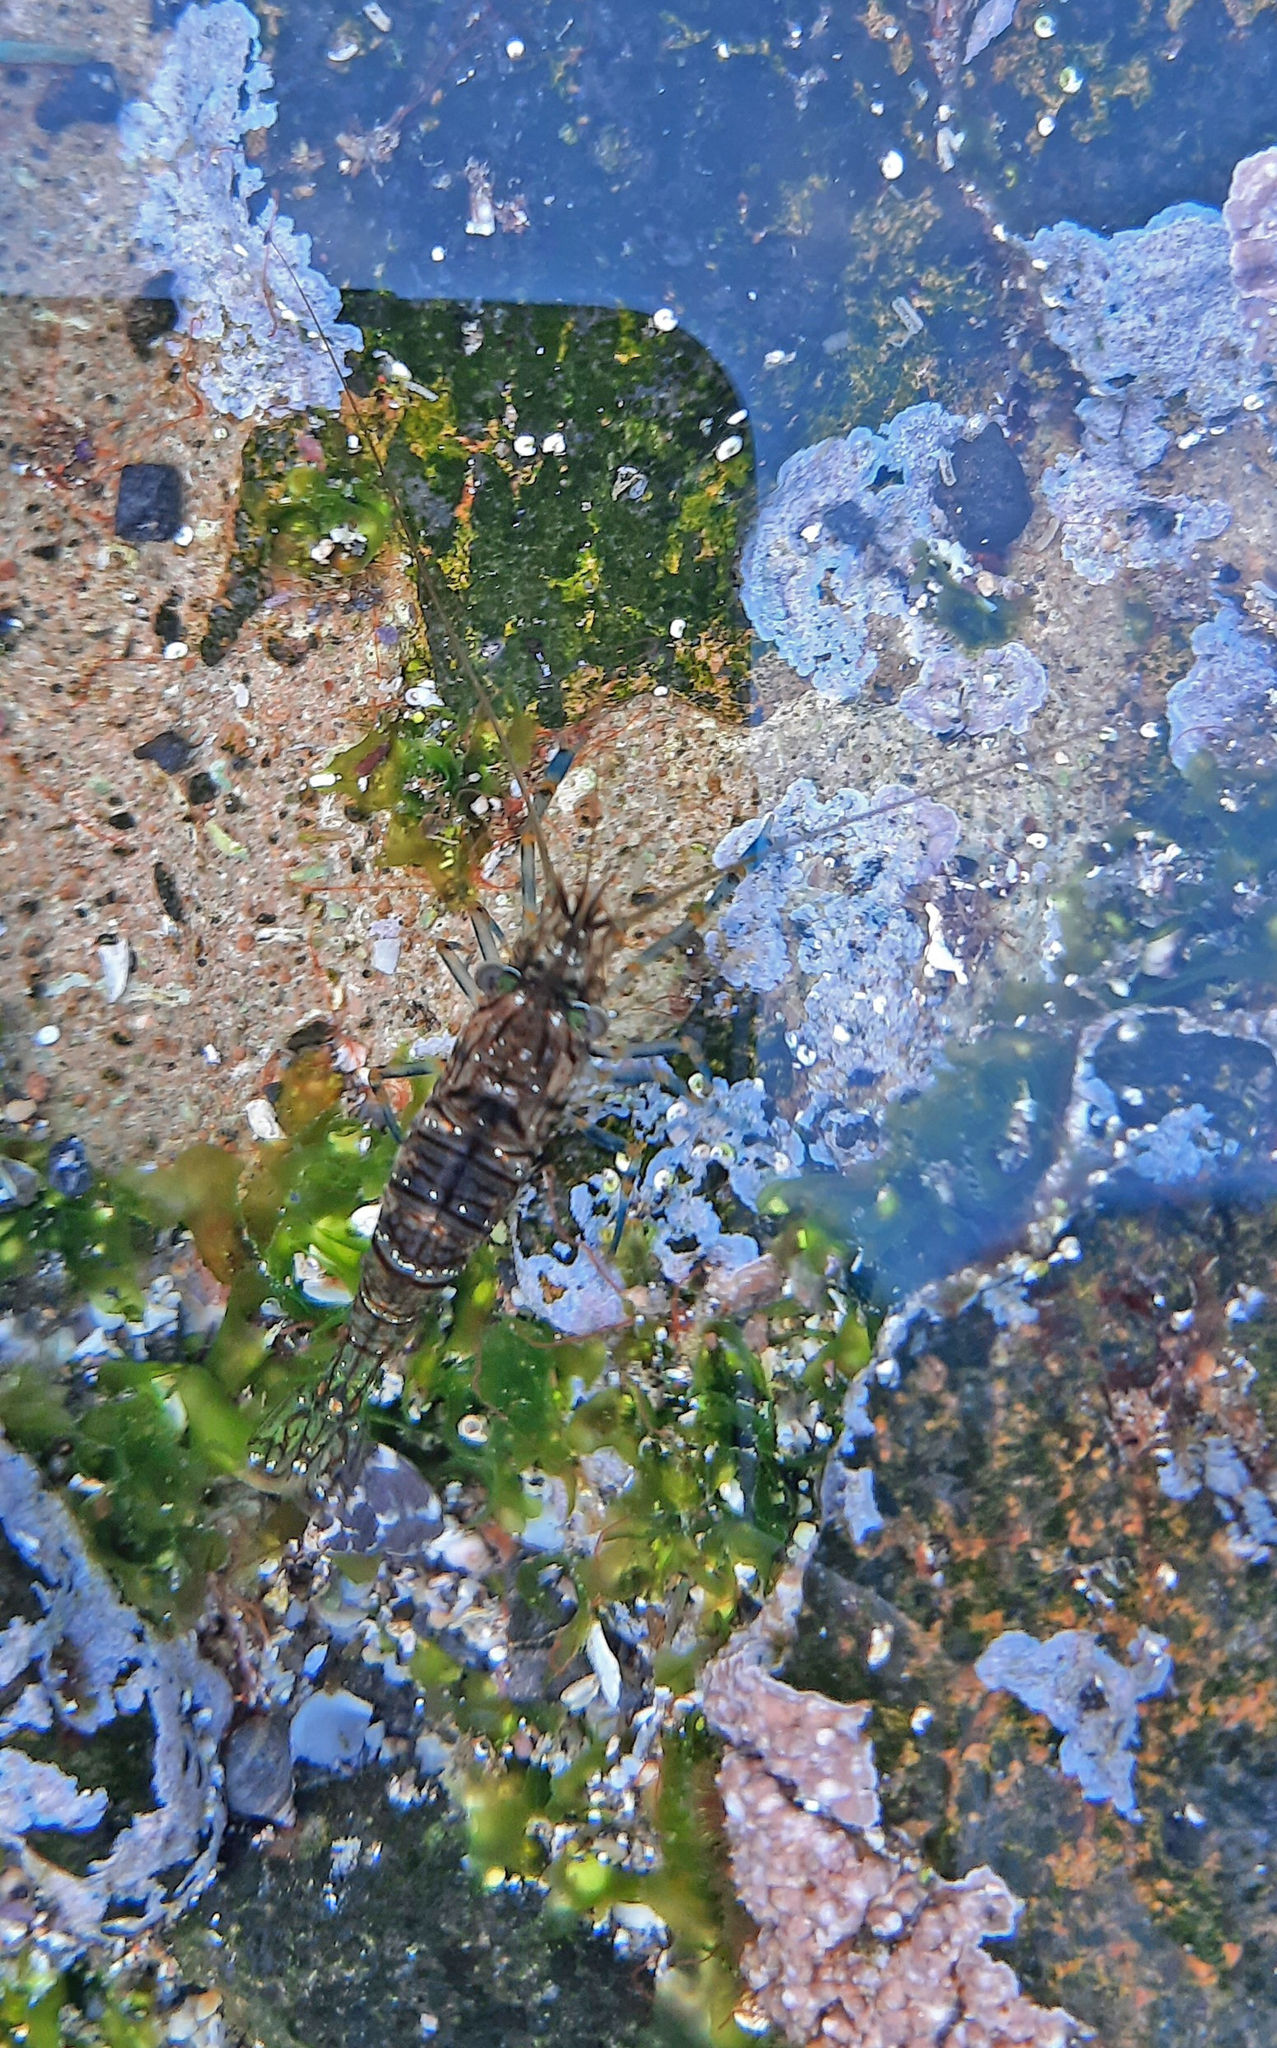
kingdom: Animalia
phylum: Arthropoda
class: Malacostraca
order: Decapoda
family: Palaemonidae
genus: Palaemon
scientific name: Palaemon elegans
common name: Grass prawm
